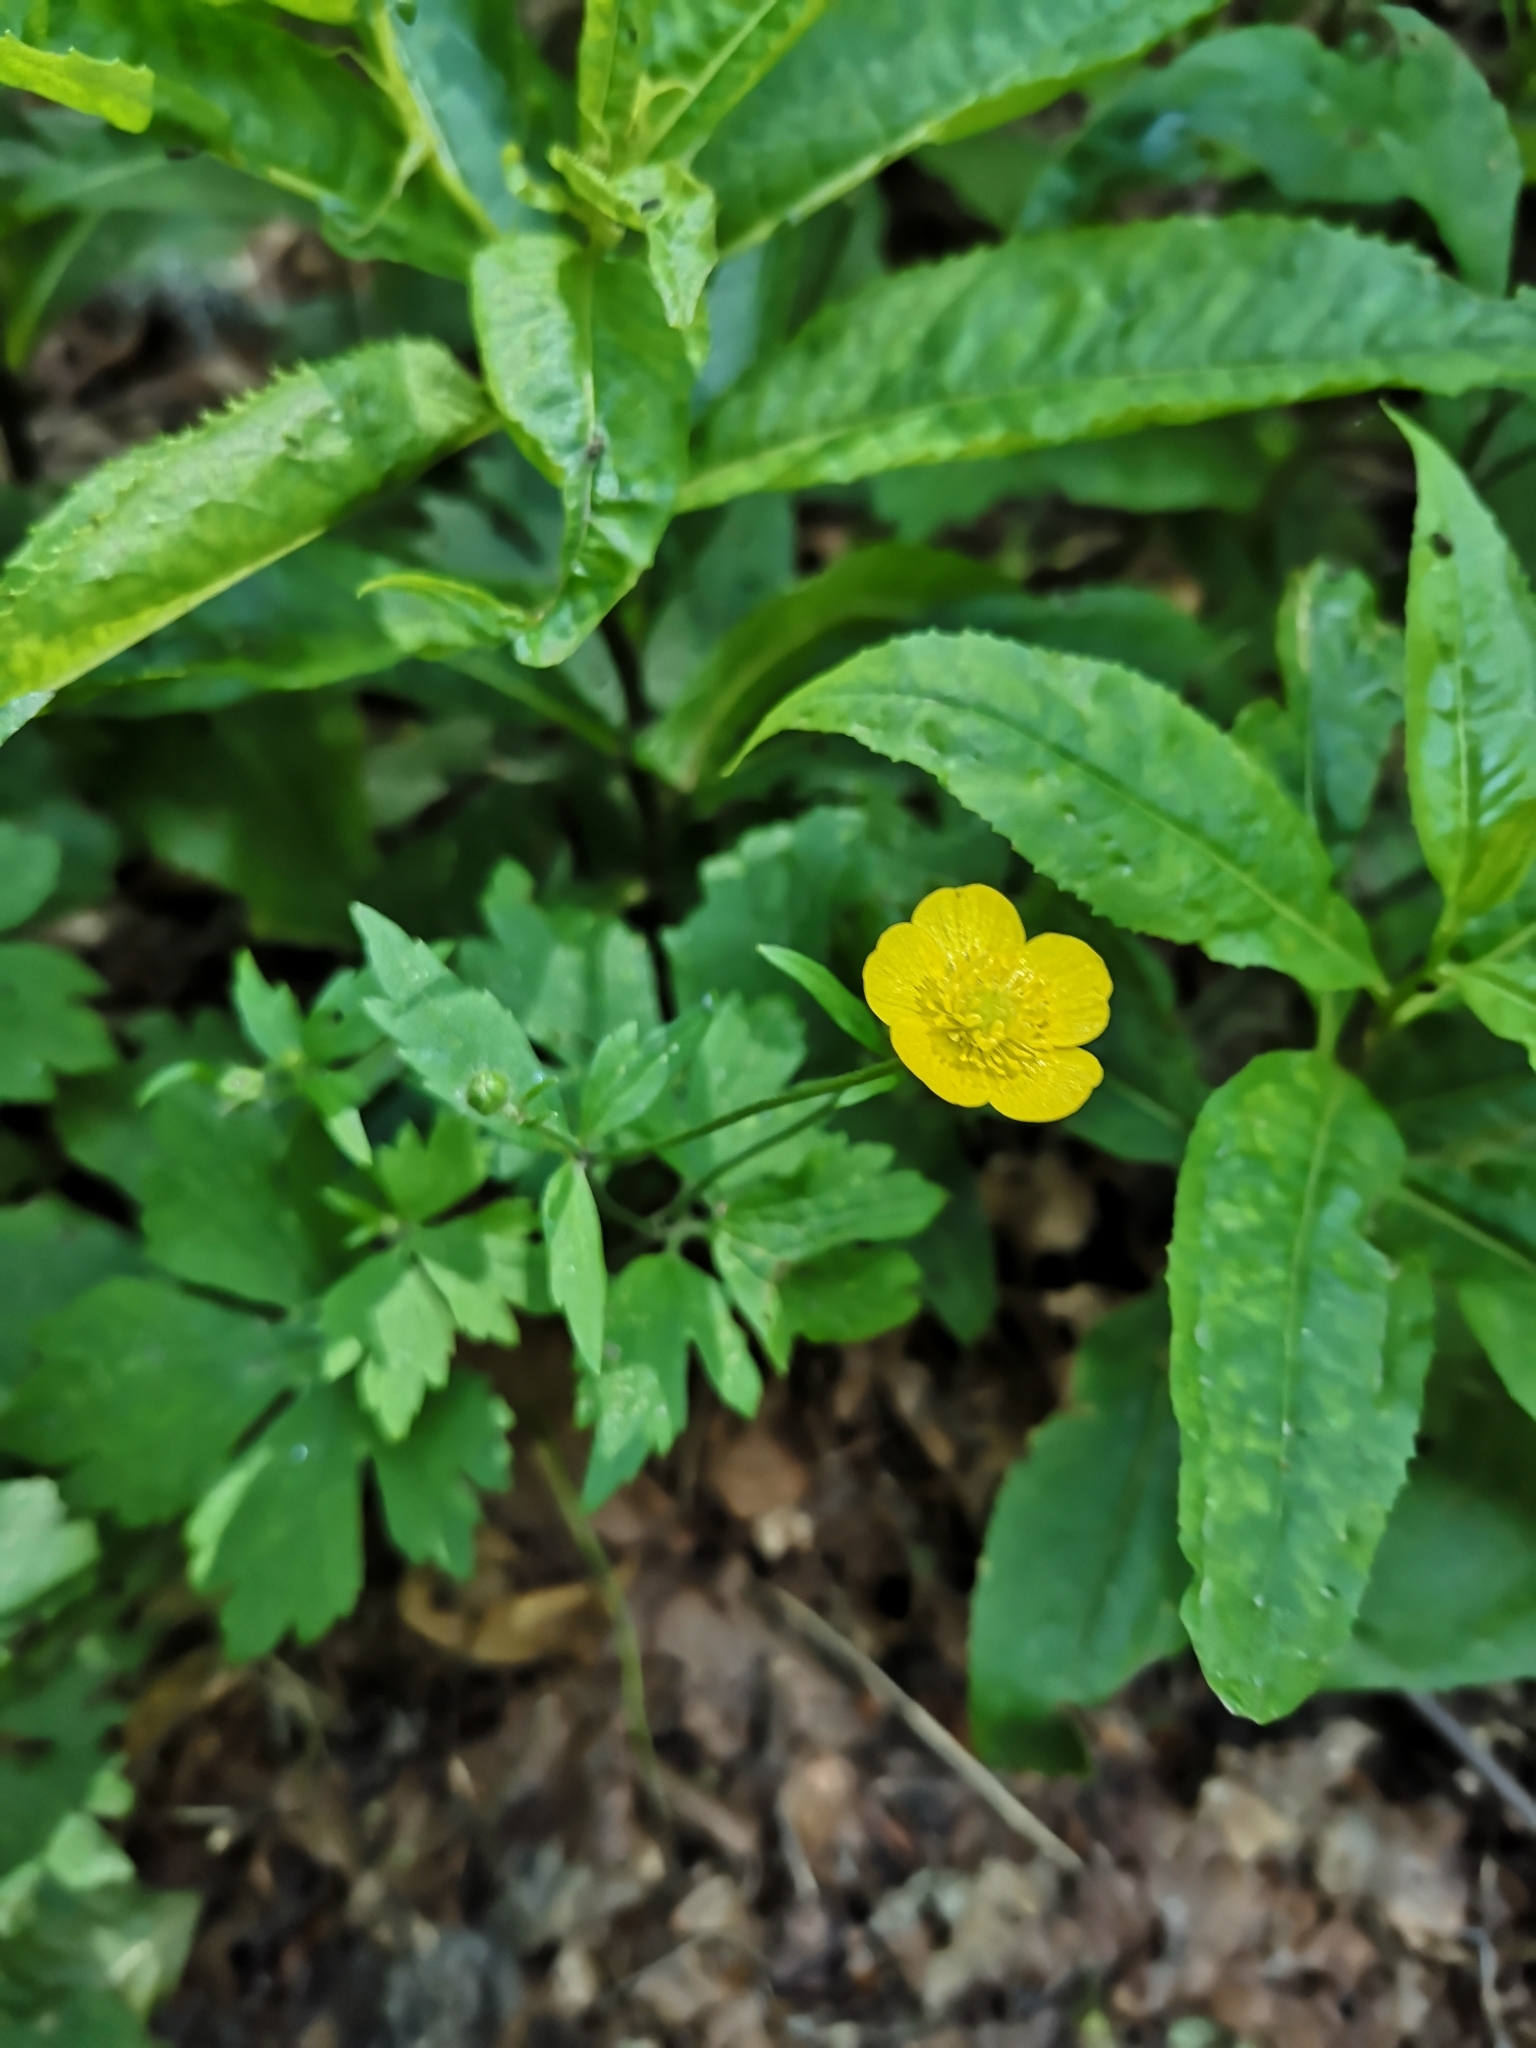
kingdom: Plantae
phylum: Tracheophyta
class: Magnoliopsida
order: Ranunculales
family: Ranunculaceae
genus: Ranunculus
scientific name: Ranunculus repens
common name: Creeping buttercup
